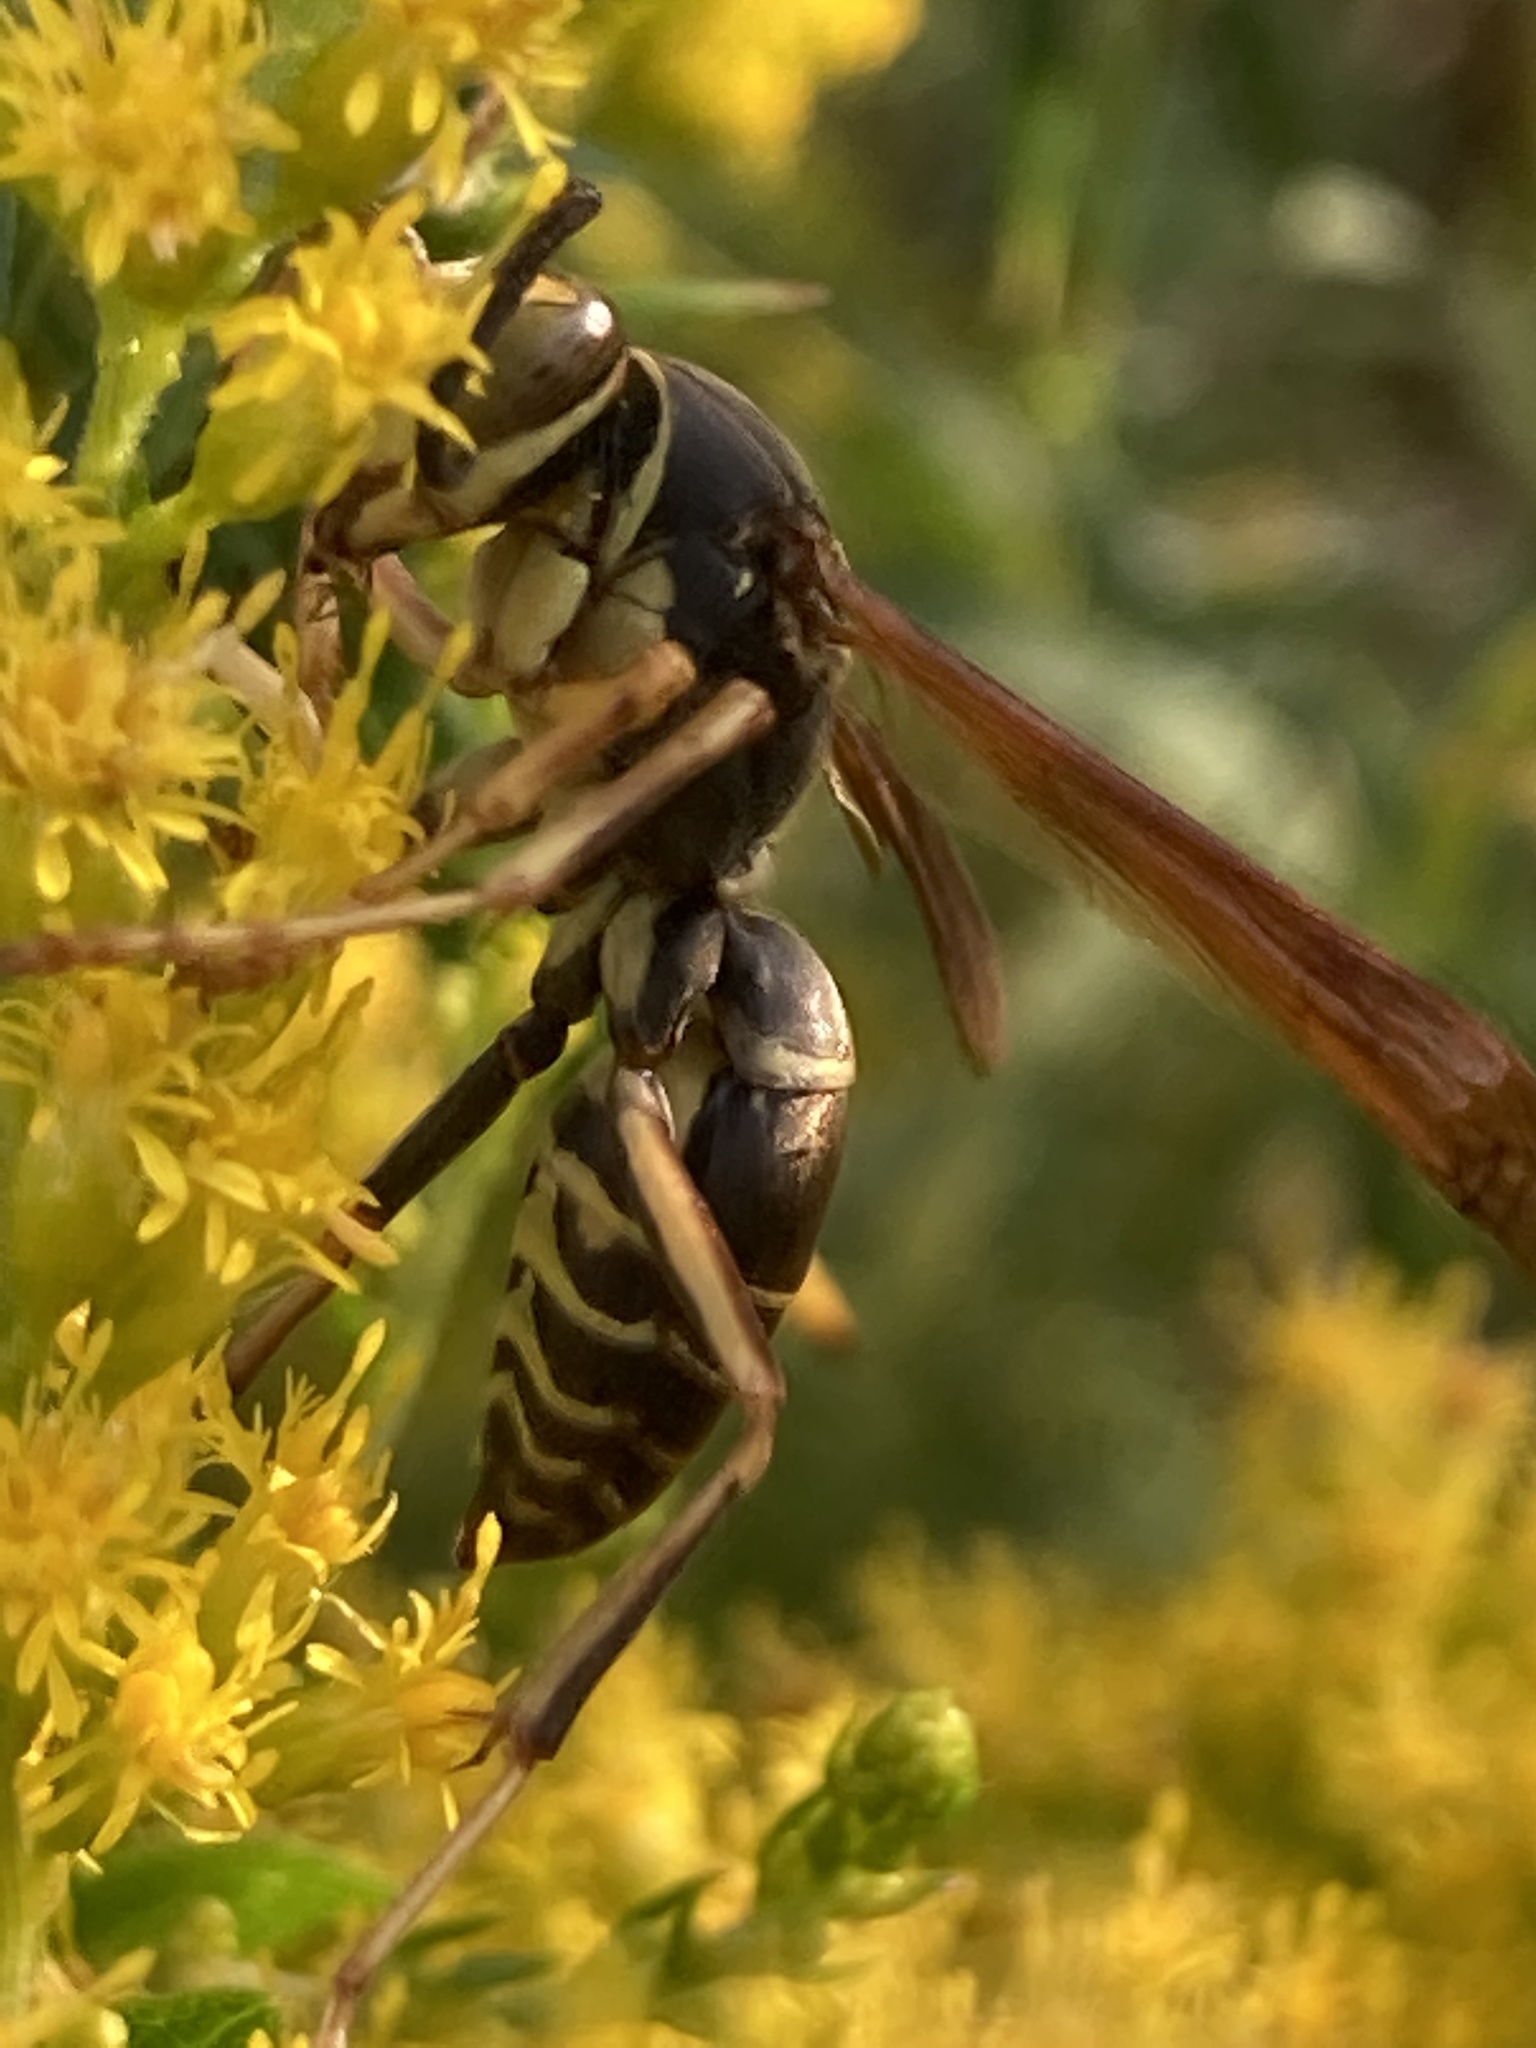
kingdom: Animalia
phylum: Arthropoda
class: Insecta
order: Hymenoptera
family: Eumenidae
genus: Polistes
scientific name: Polistes fuscatus
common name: Dark paper wasp
